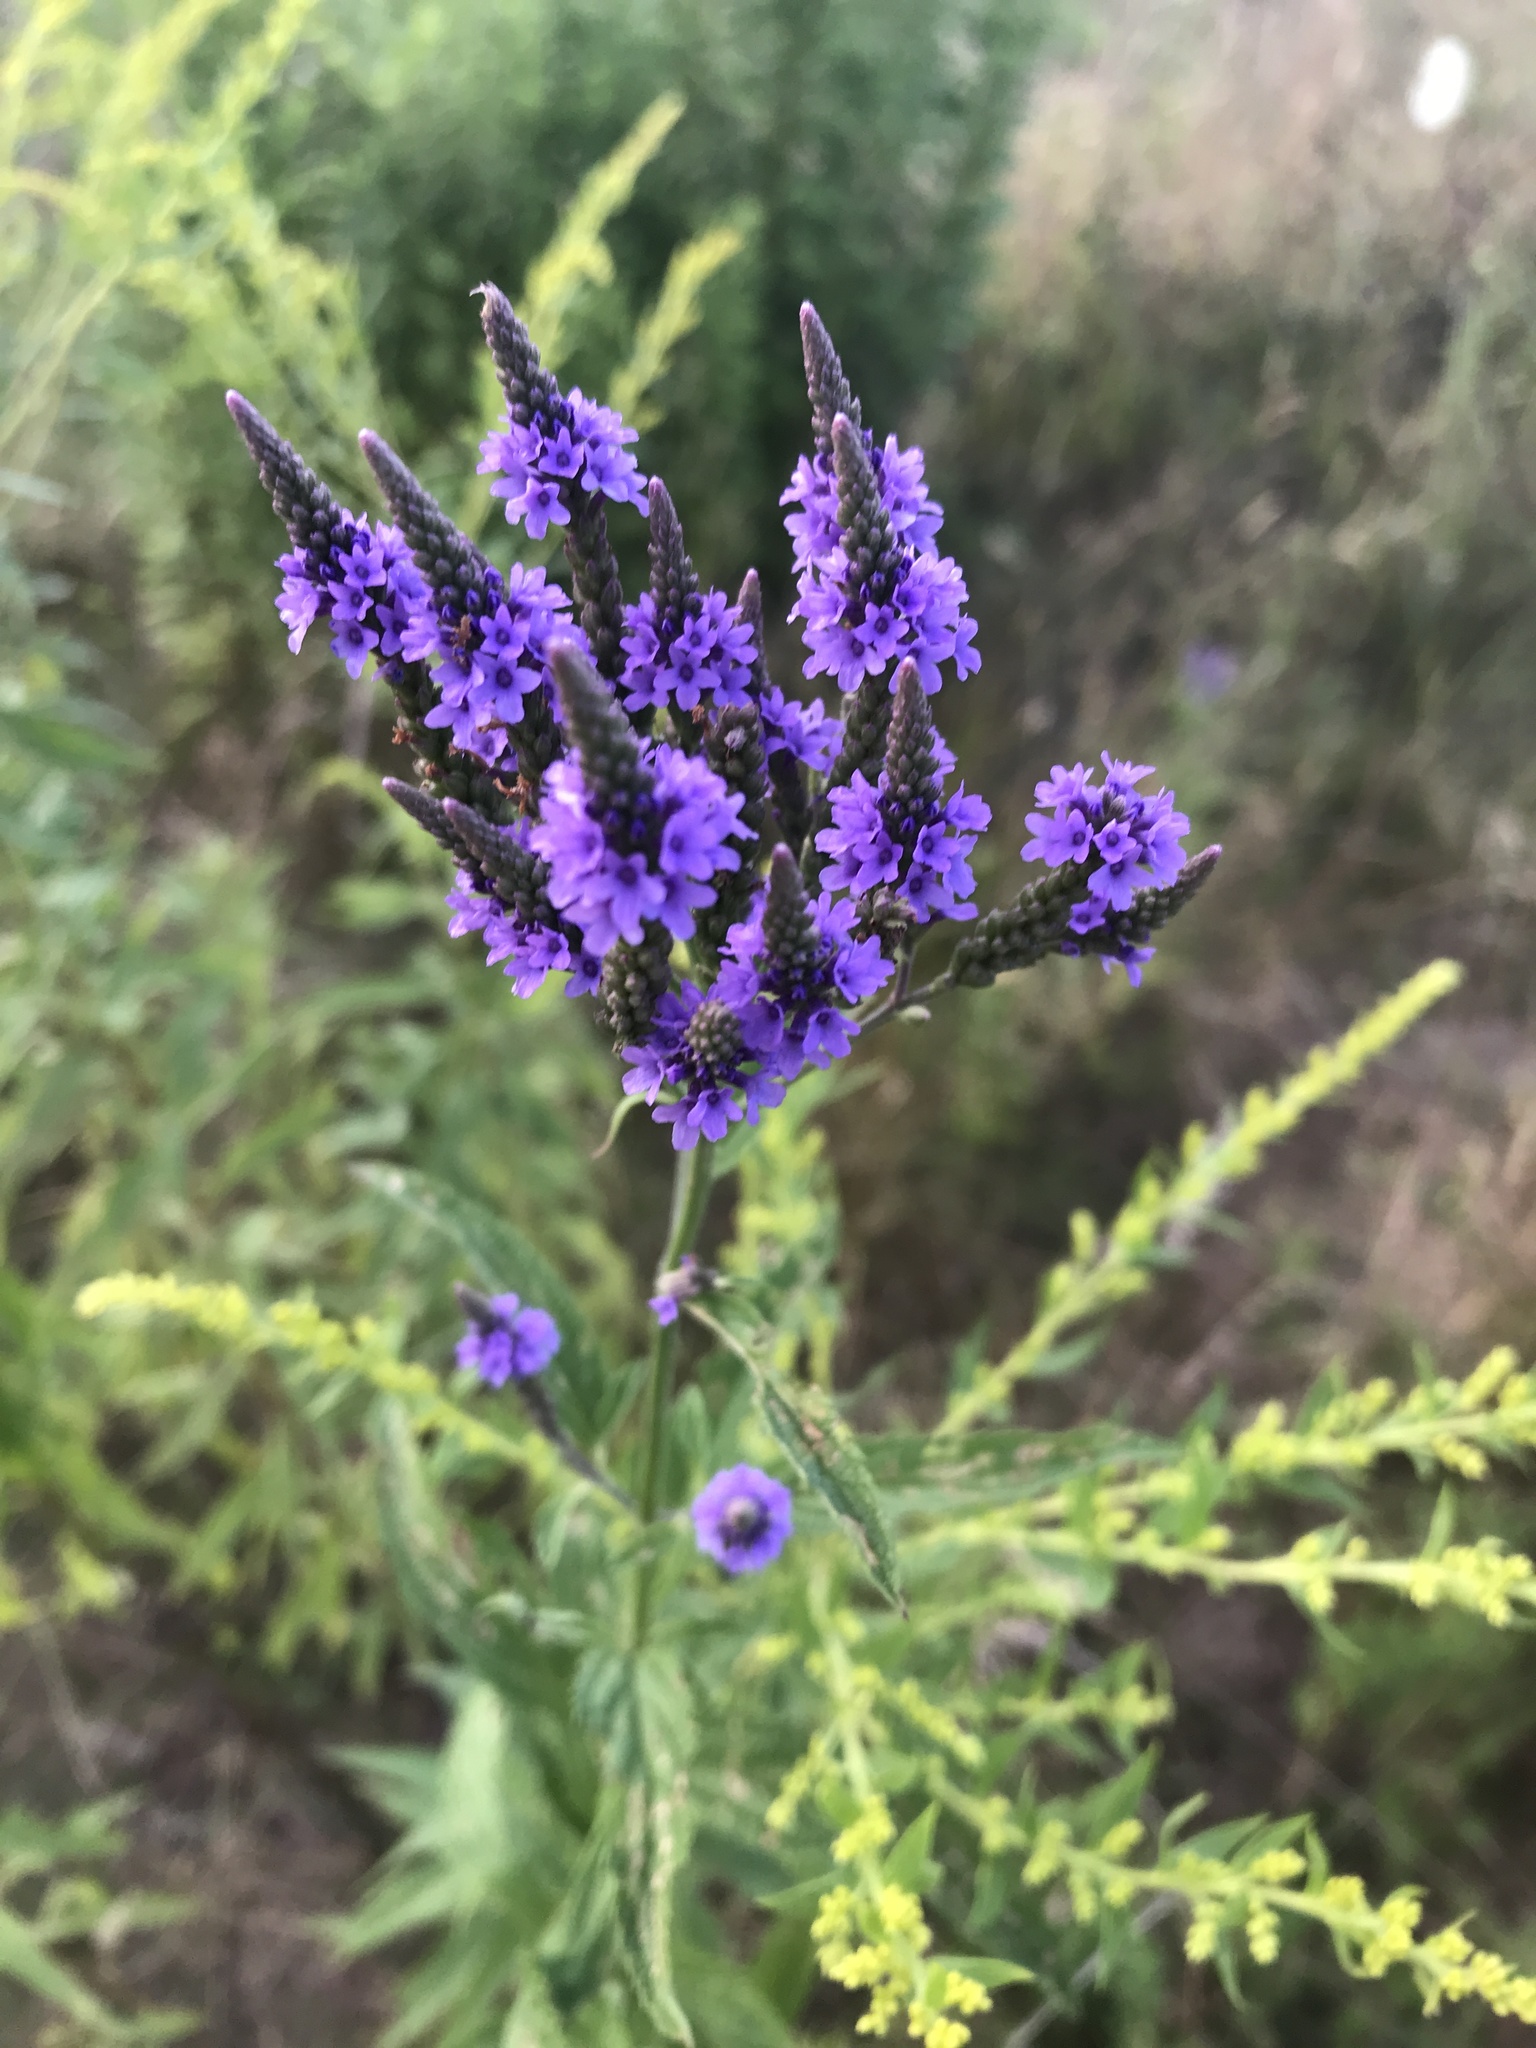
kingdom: Plantae
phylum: Tracheophyta
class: Magnoliopsida
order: Lamiales
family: Verbenaceae
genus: Verbena
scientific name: Verbena hastata
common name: American blue vervain
